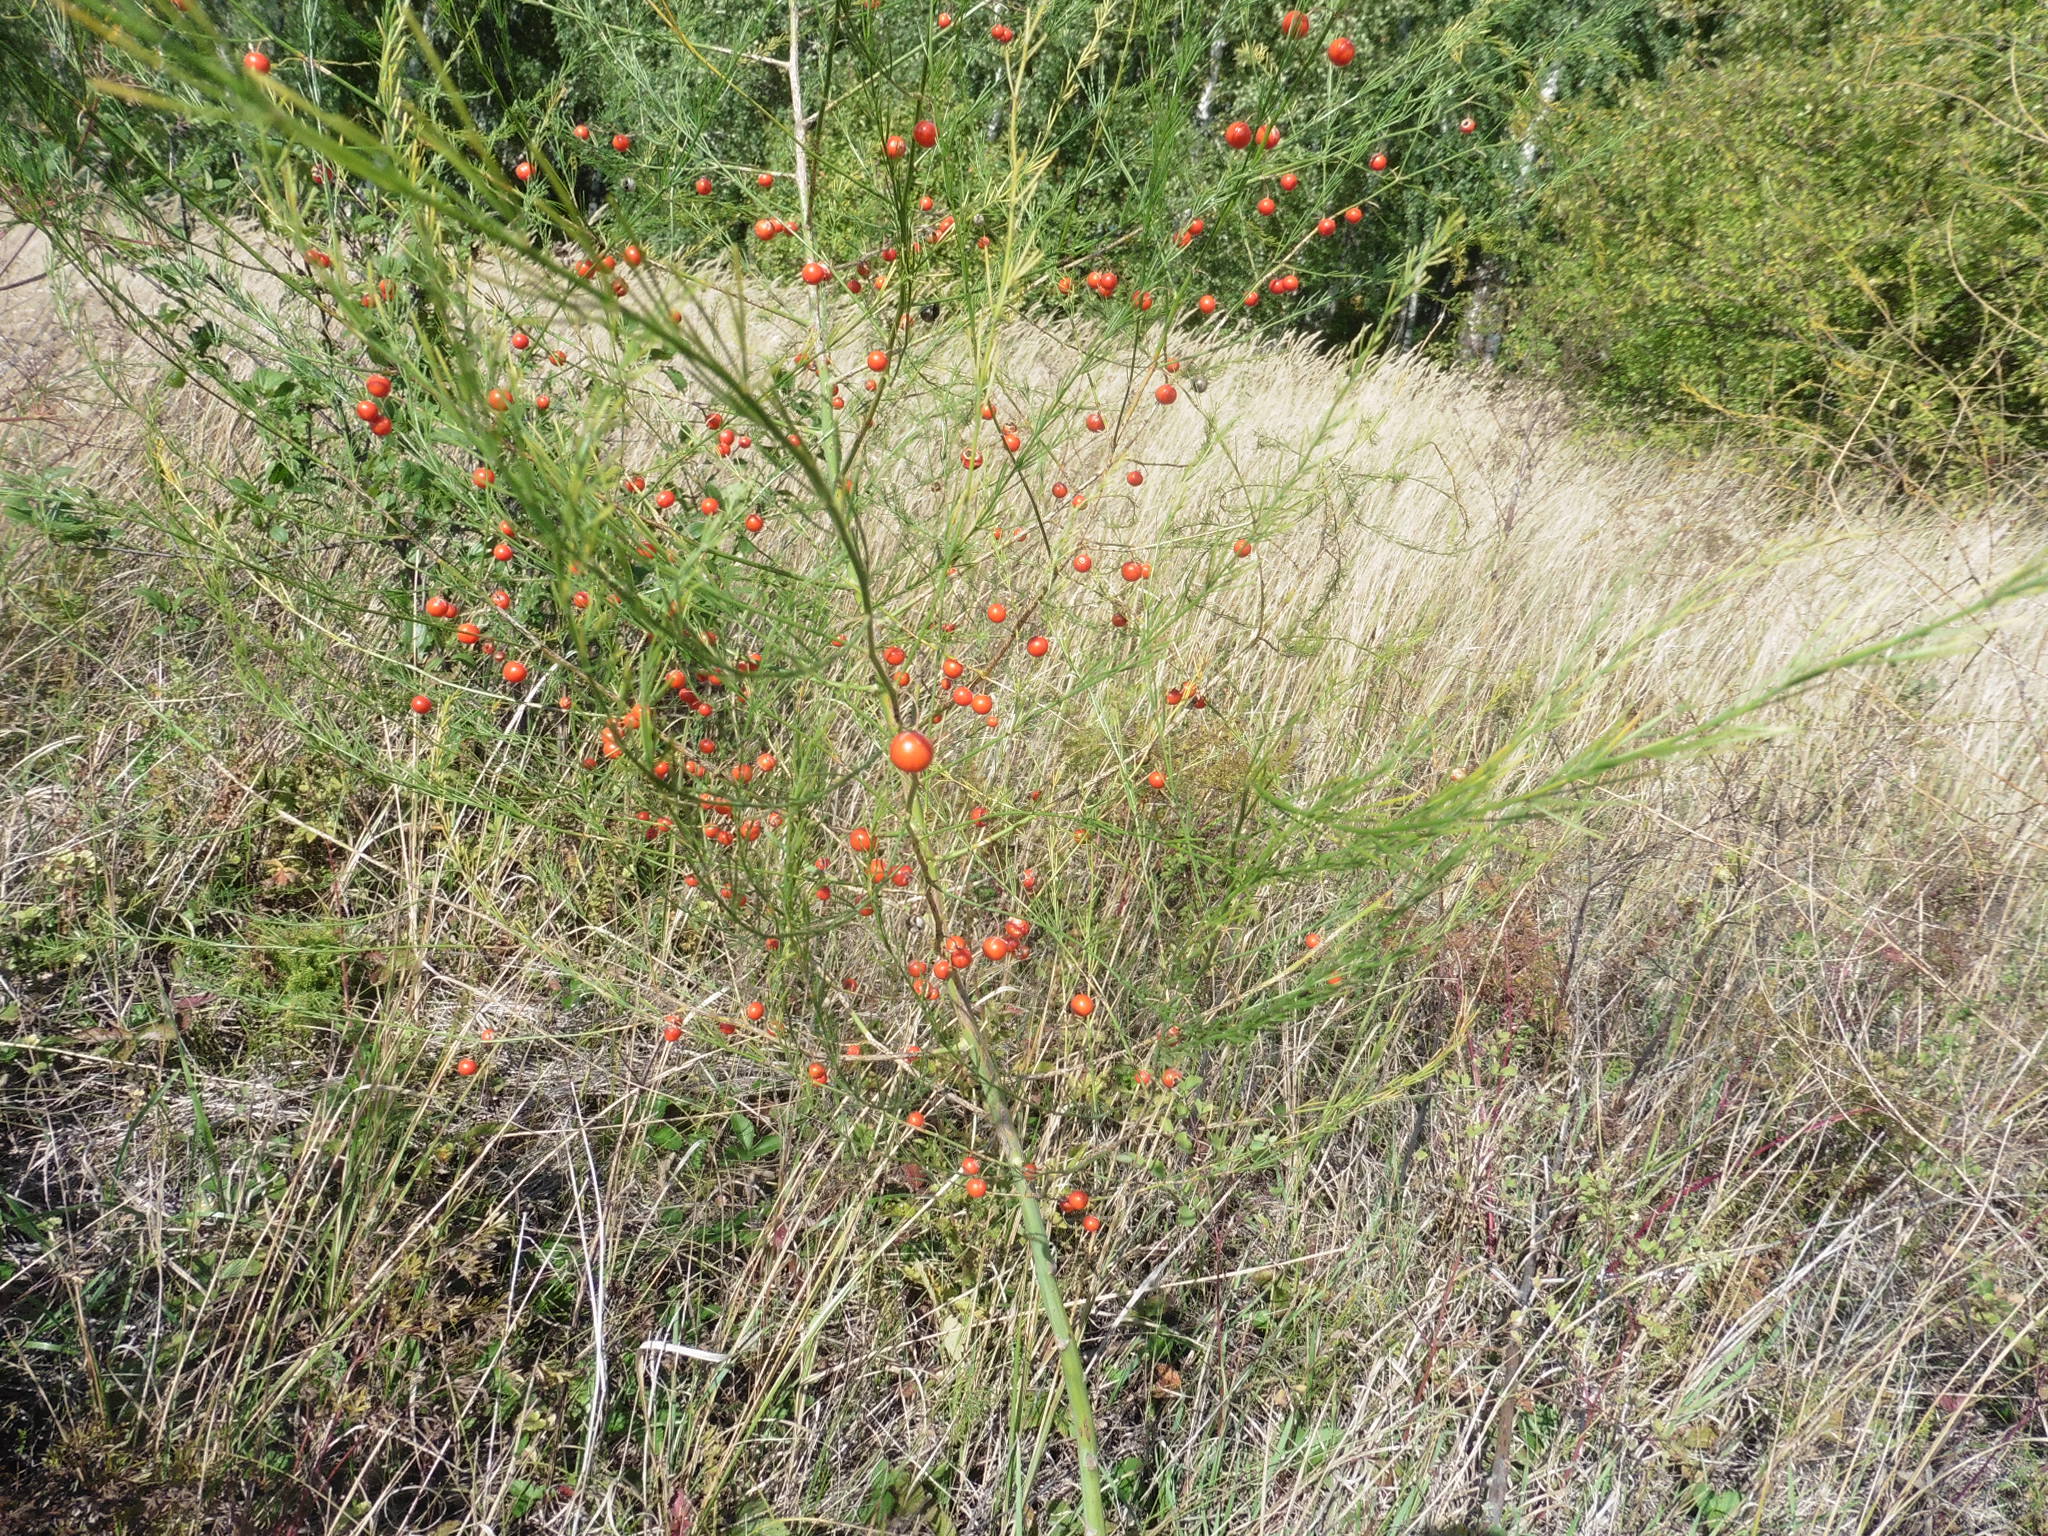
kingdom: Plantae
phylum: Tracheophyta
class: Liliopsida
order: Asparagales
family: Asparagaceae
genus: Asparagus
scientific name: Asparagus officinalis
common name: Garden asparagus
